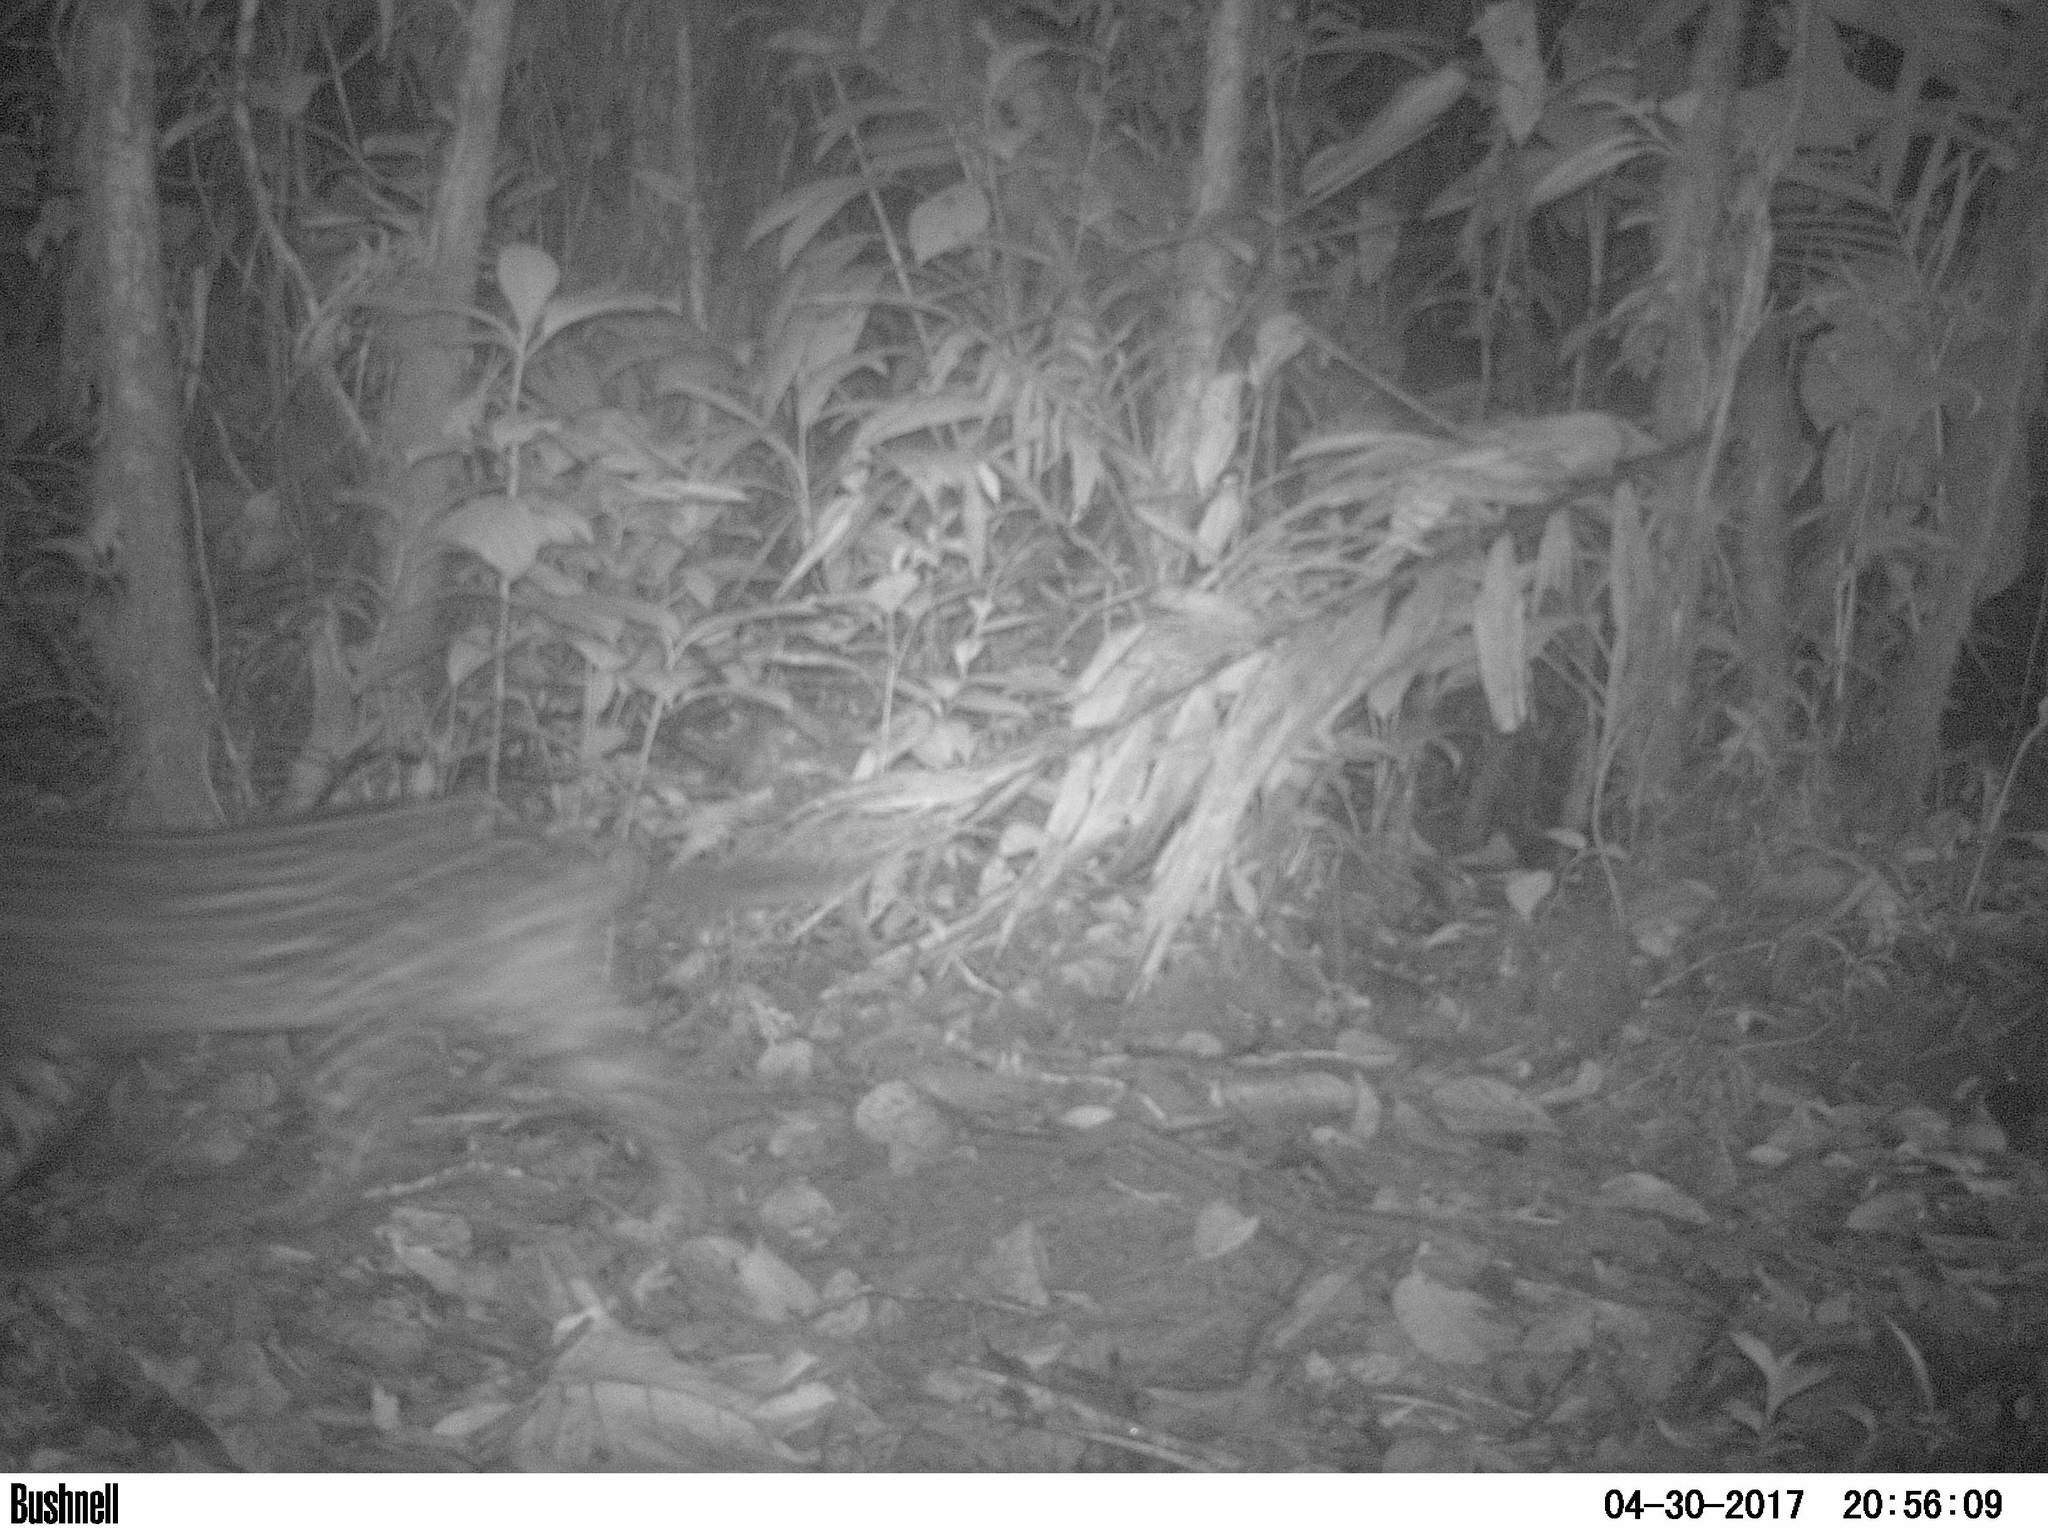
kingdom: Animalia
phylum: Chordata
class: Mammalia
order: Carnivora
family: Felidae
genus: Leopardus
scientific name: Leopardus pardalis
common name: Ocelot
